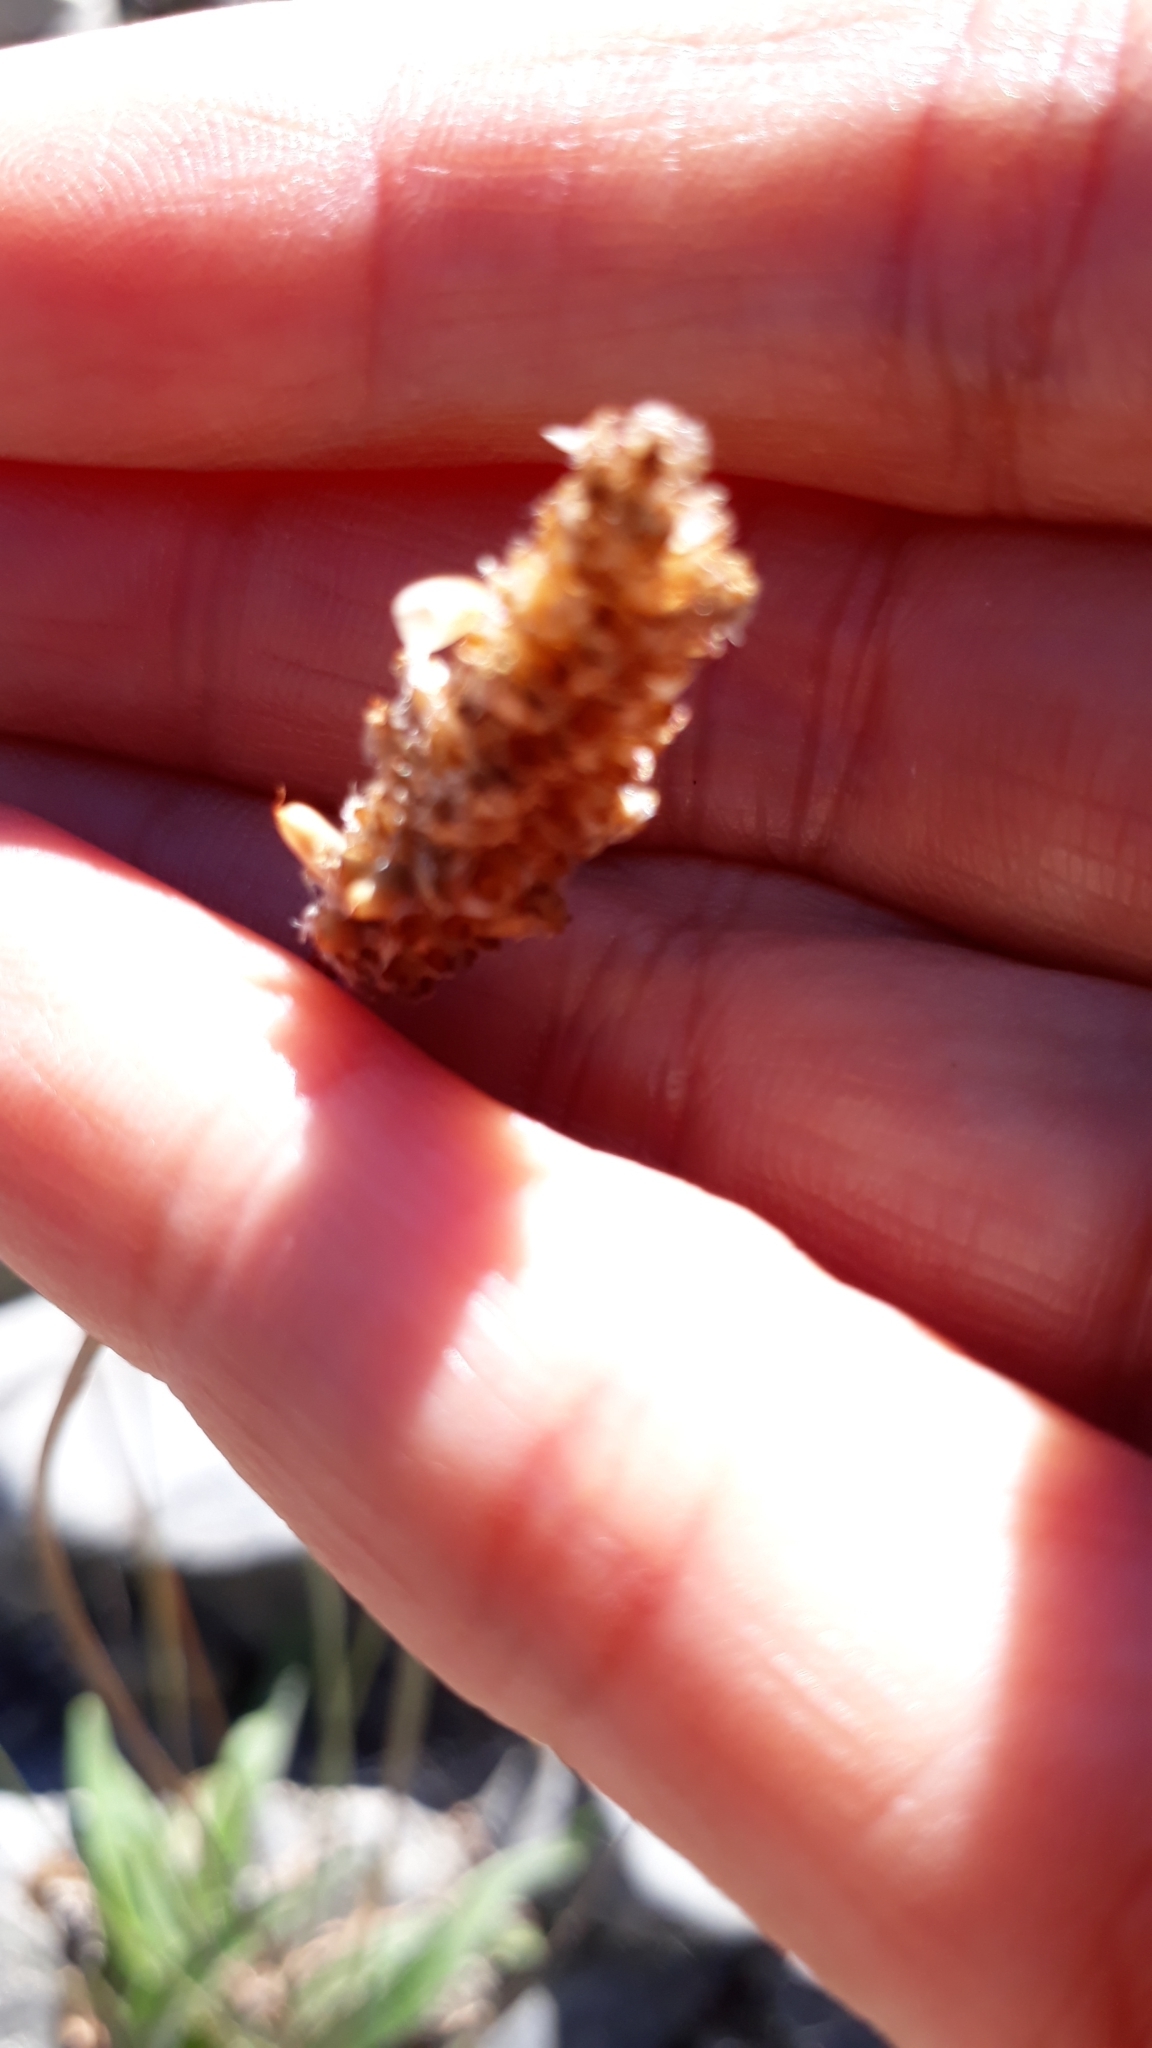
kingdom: Plantae
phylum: Tracheophyta
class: Magnoliopsida
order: Lamiales
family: Plantaginaceae
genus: Plantago
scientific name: Plantago lanceolata
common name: Ribwort plantain
